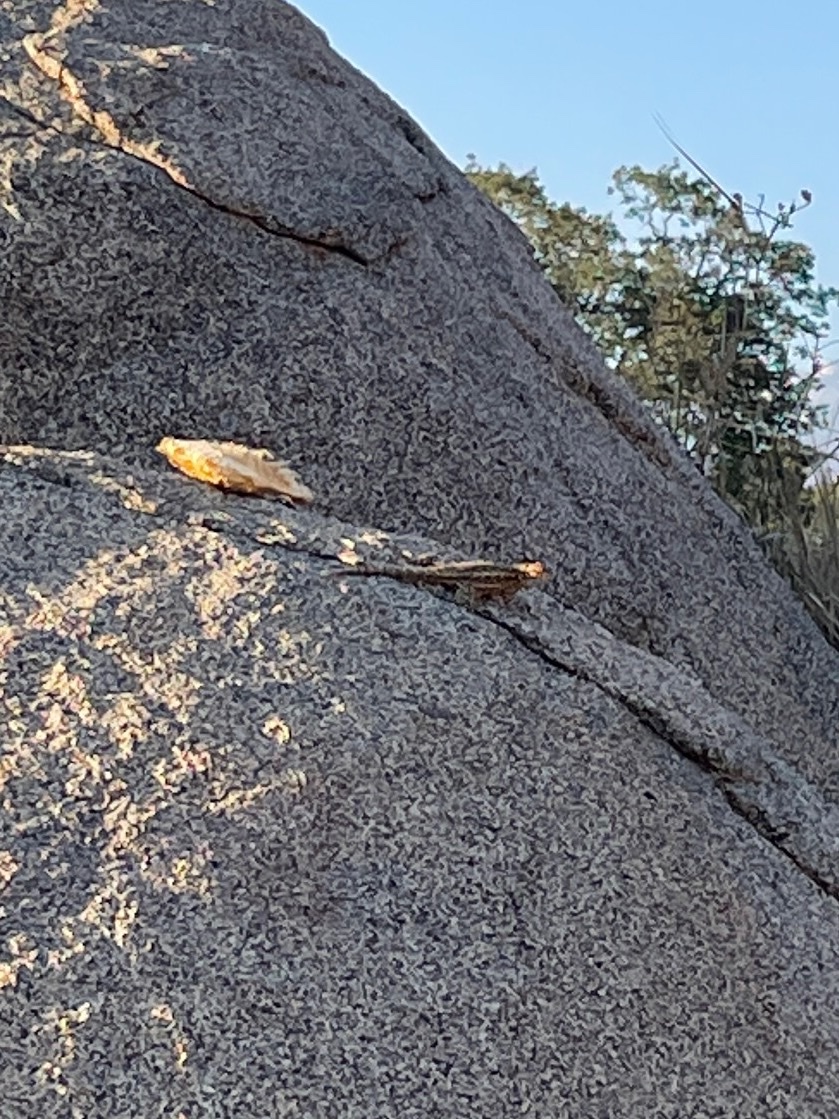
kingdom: Animalia
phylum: Chordata
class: Squamata
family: Phrynosomatidae
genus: Sceloporus
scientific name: Sceloporus occidentalis
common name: Western fence lizard
